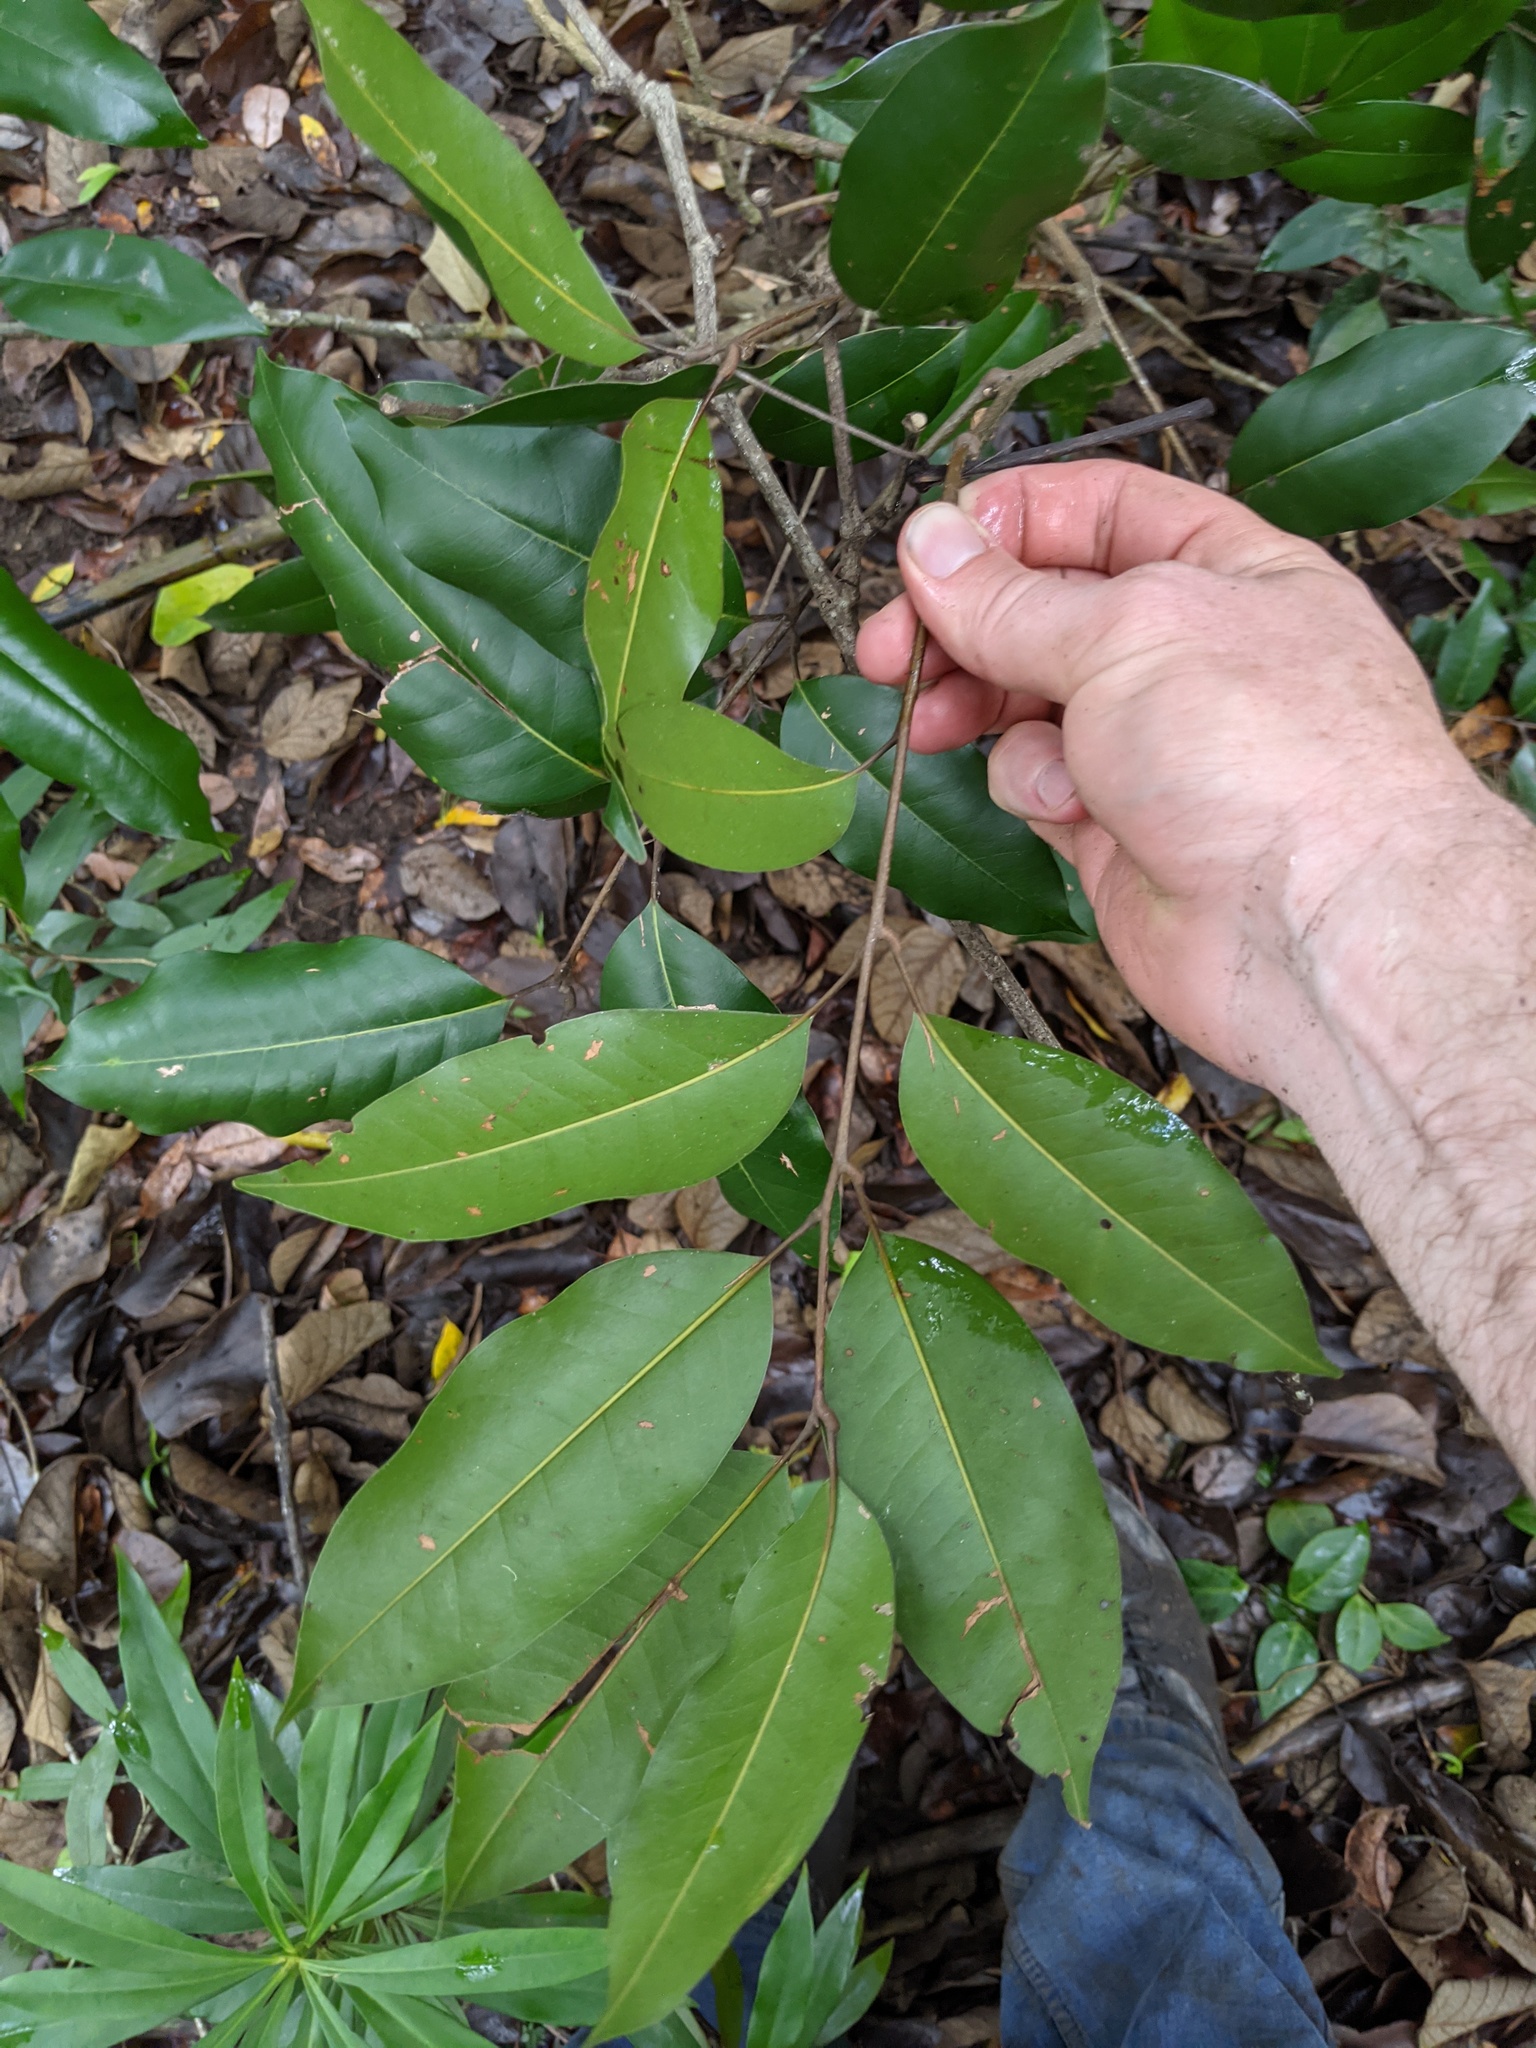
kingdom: Plantae
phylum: Tracheophyta
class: Magnoliopsida
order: Sapindales
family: Sapindaceae
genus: Mischocarpus
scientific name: Mischocarpus pyriformis
